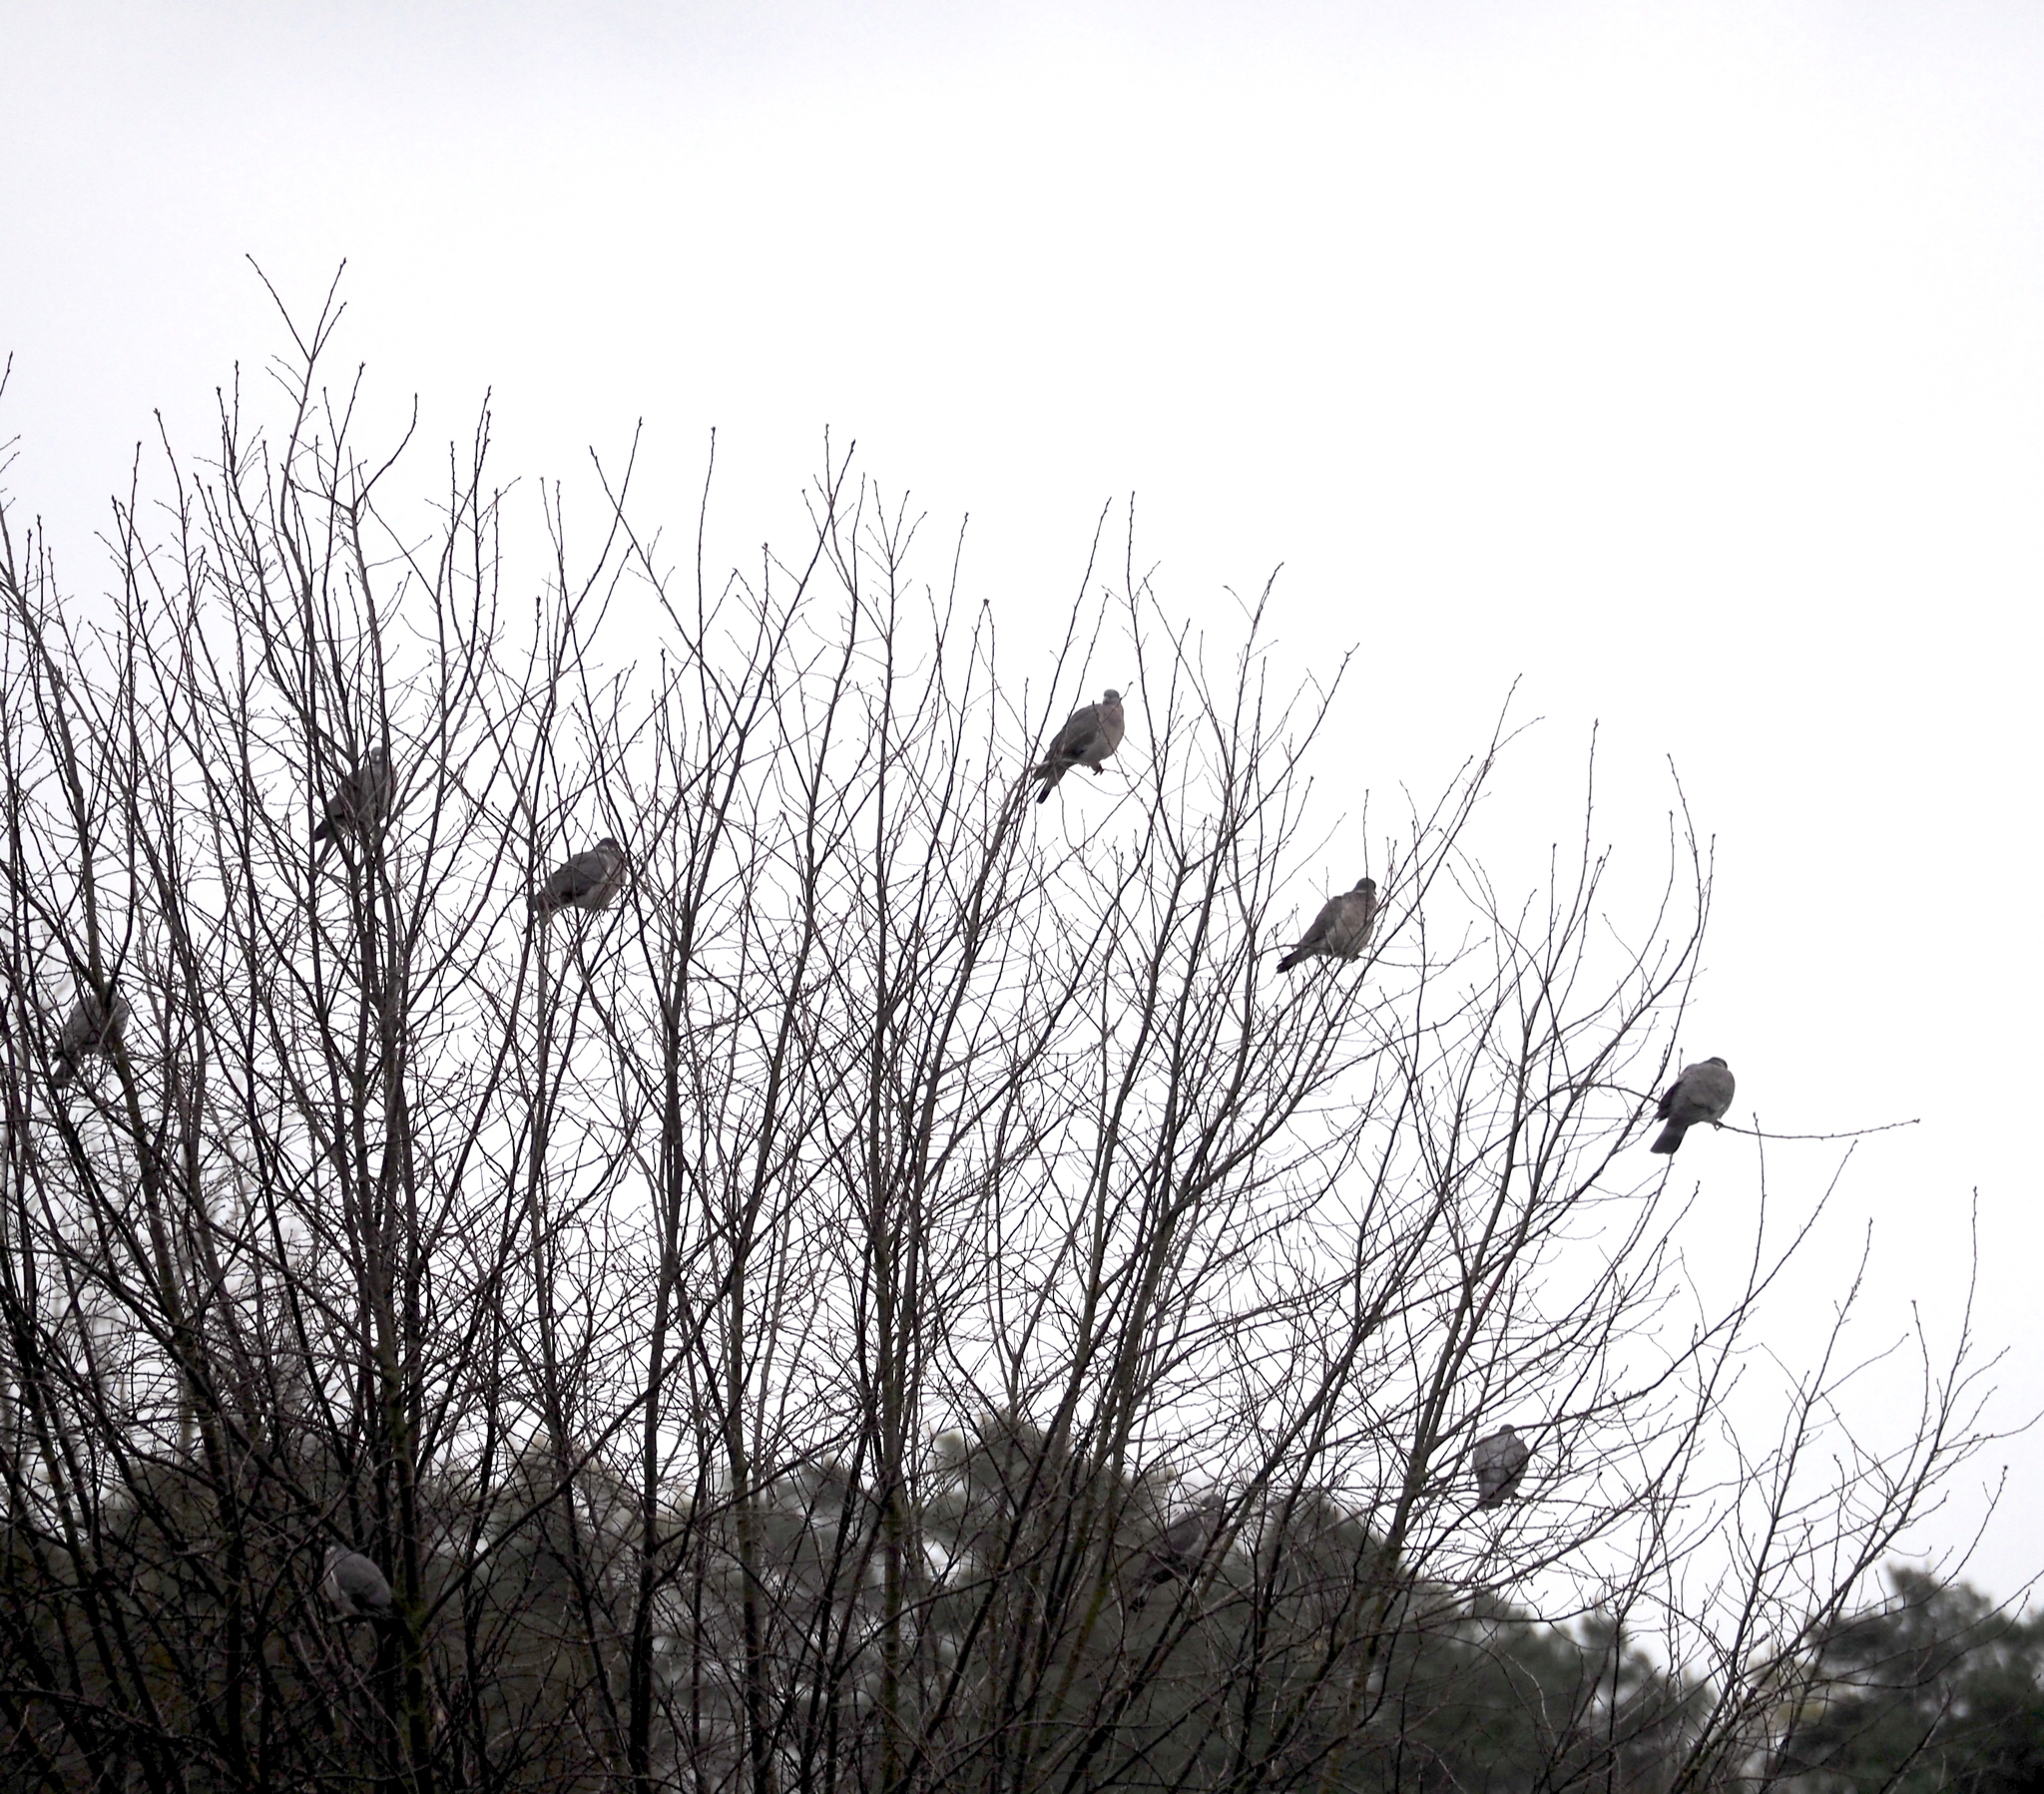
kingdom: Animalia
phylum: Chordata
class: Aves
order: Columbiformes
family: Columbidae
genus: Columba
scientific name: Columba palumbus
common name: Common wood pigeon
